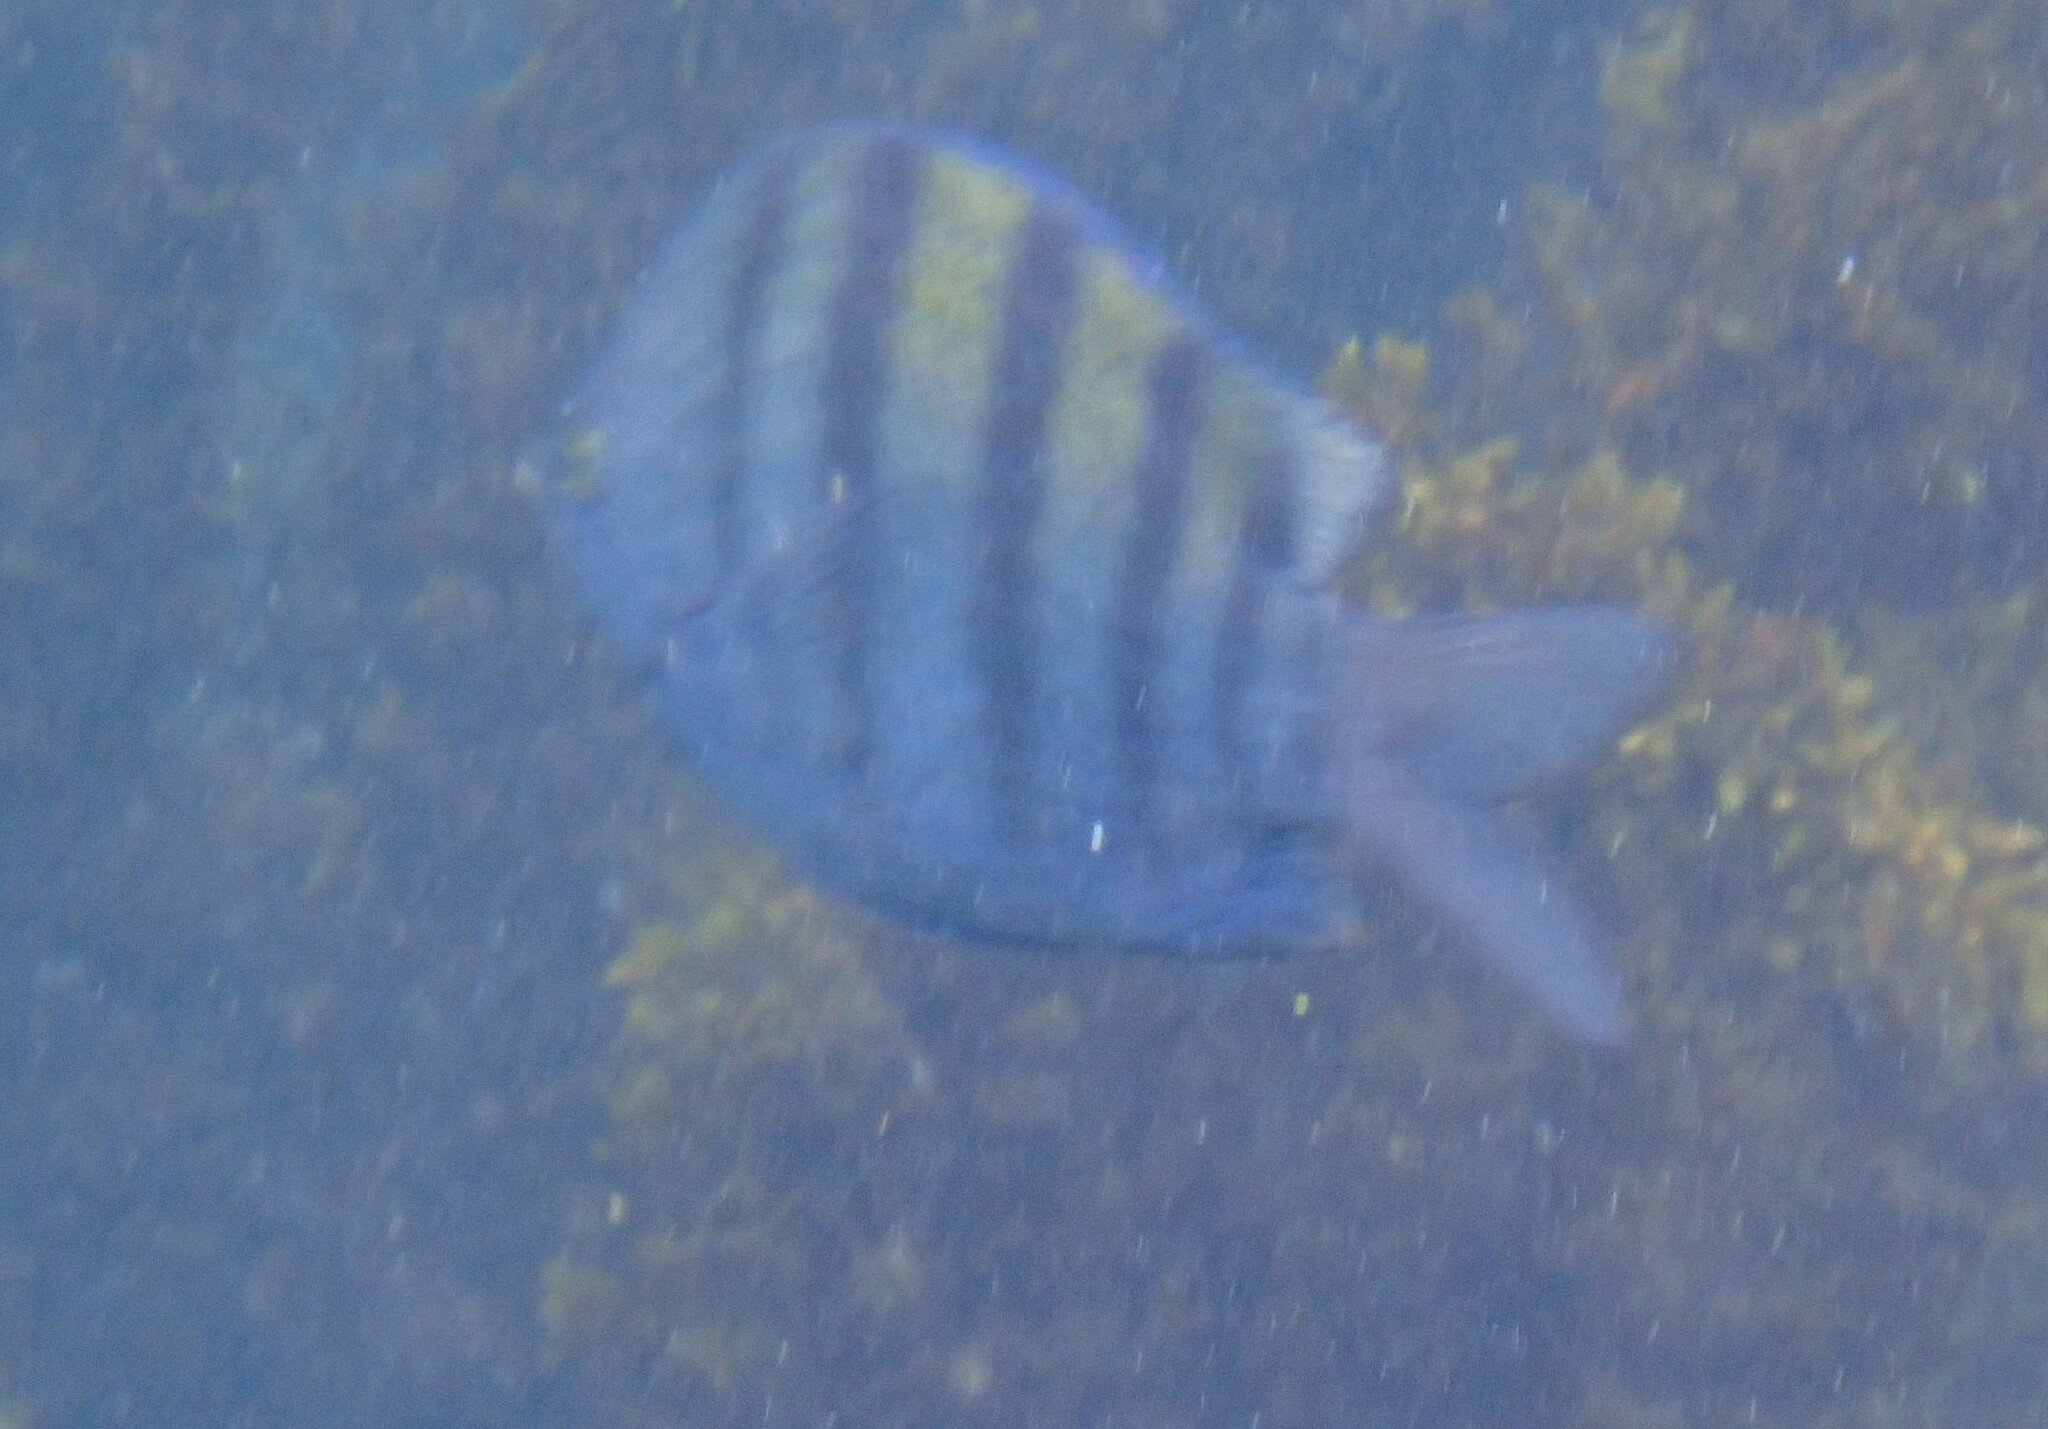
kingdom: Animalia
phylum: Chordata
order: Perciformes
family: Pomacentridae
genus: Abudefduf
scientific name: Abudefduf troschelii
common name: Panamic sergeant major
